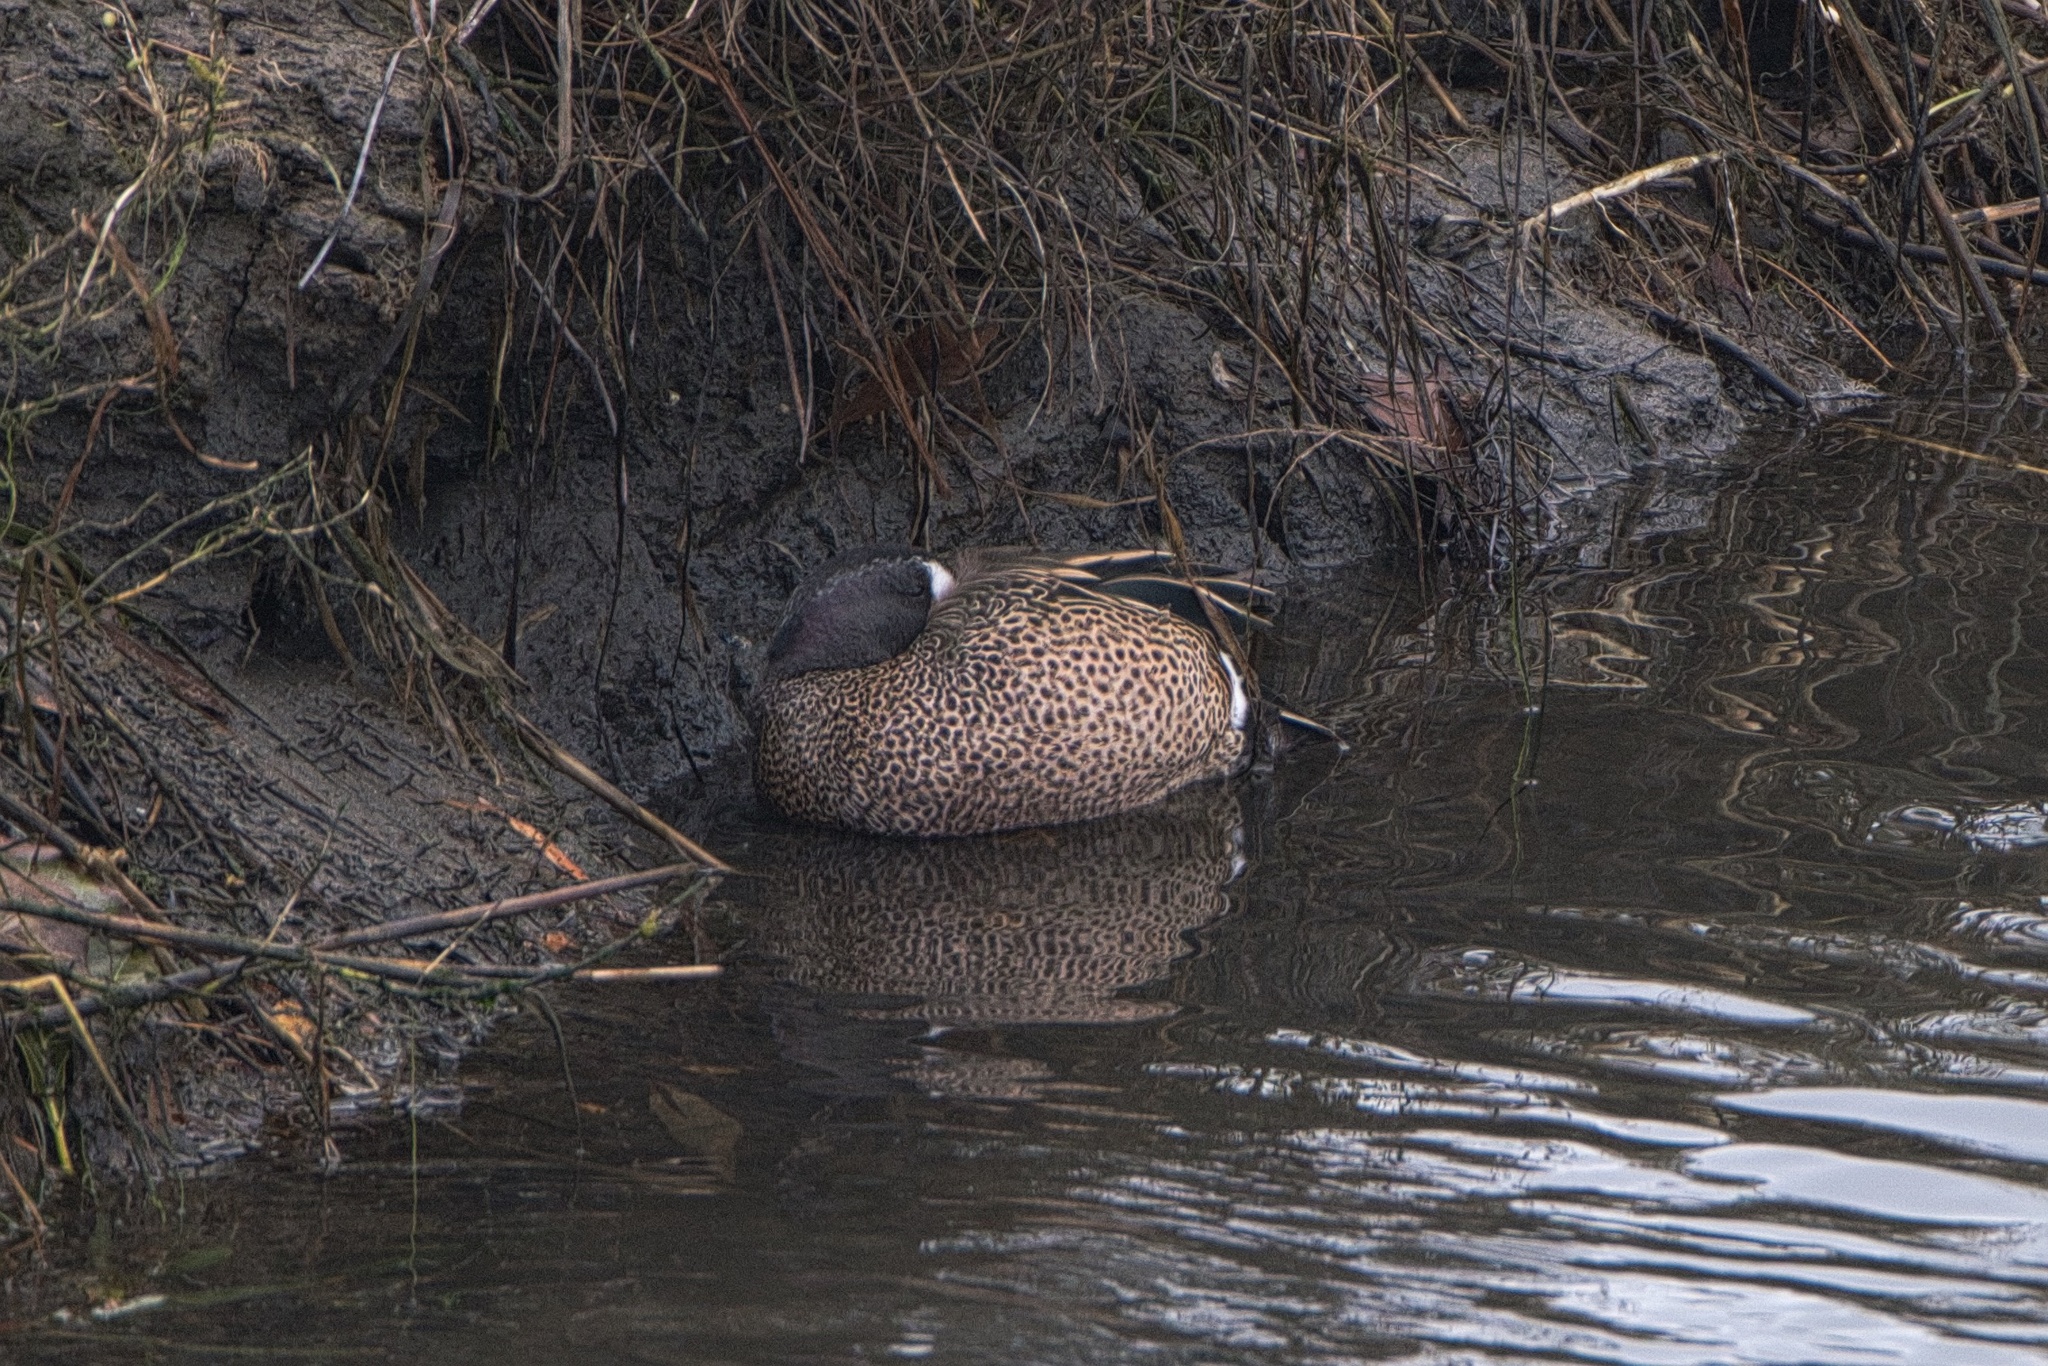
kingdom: Animalia
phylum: Chordata
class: Aves
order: Anseriformes
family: Anatidae
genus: Spatula
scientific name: Spatula discors
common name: Blue-winged teal
